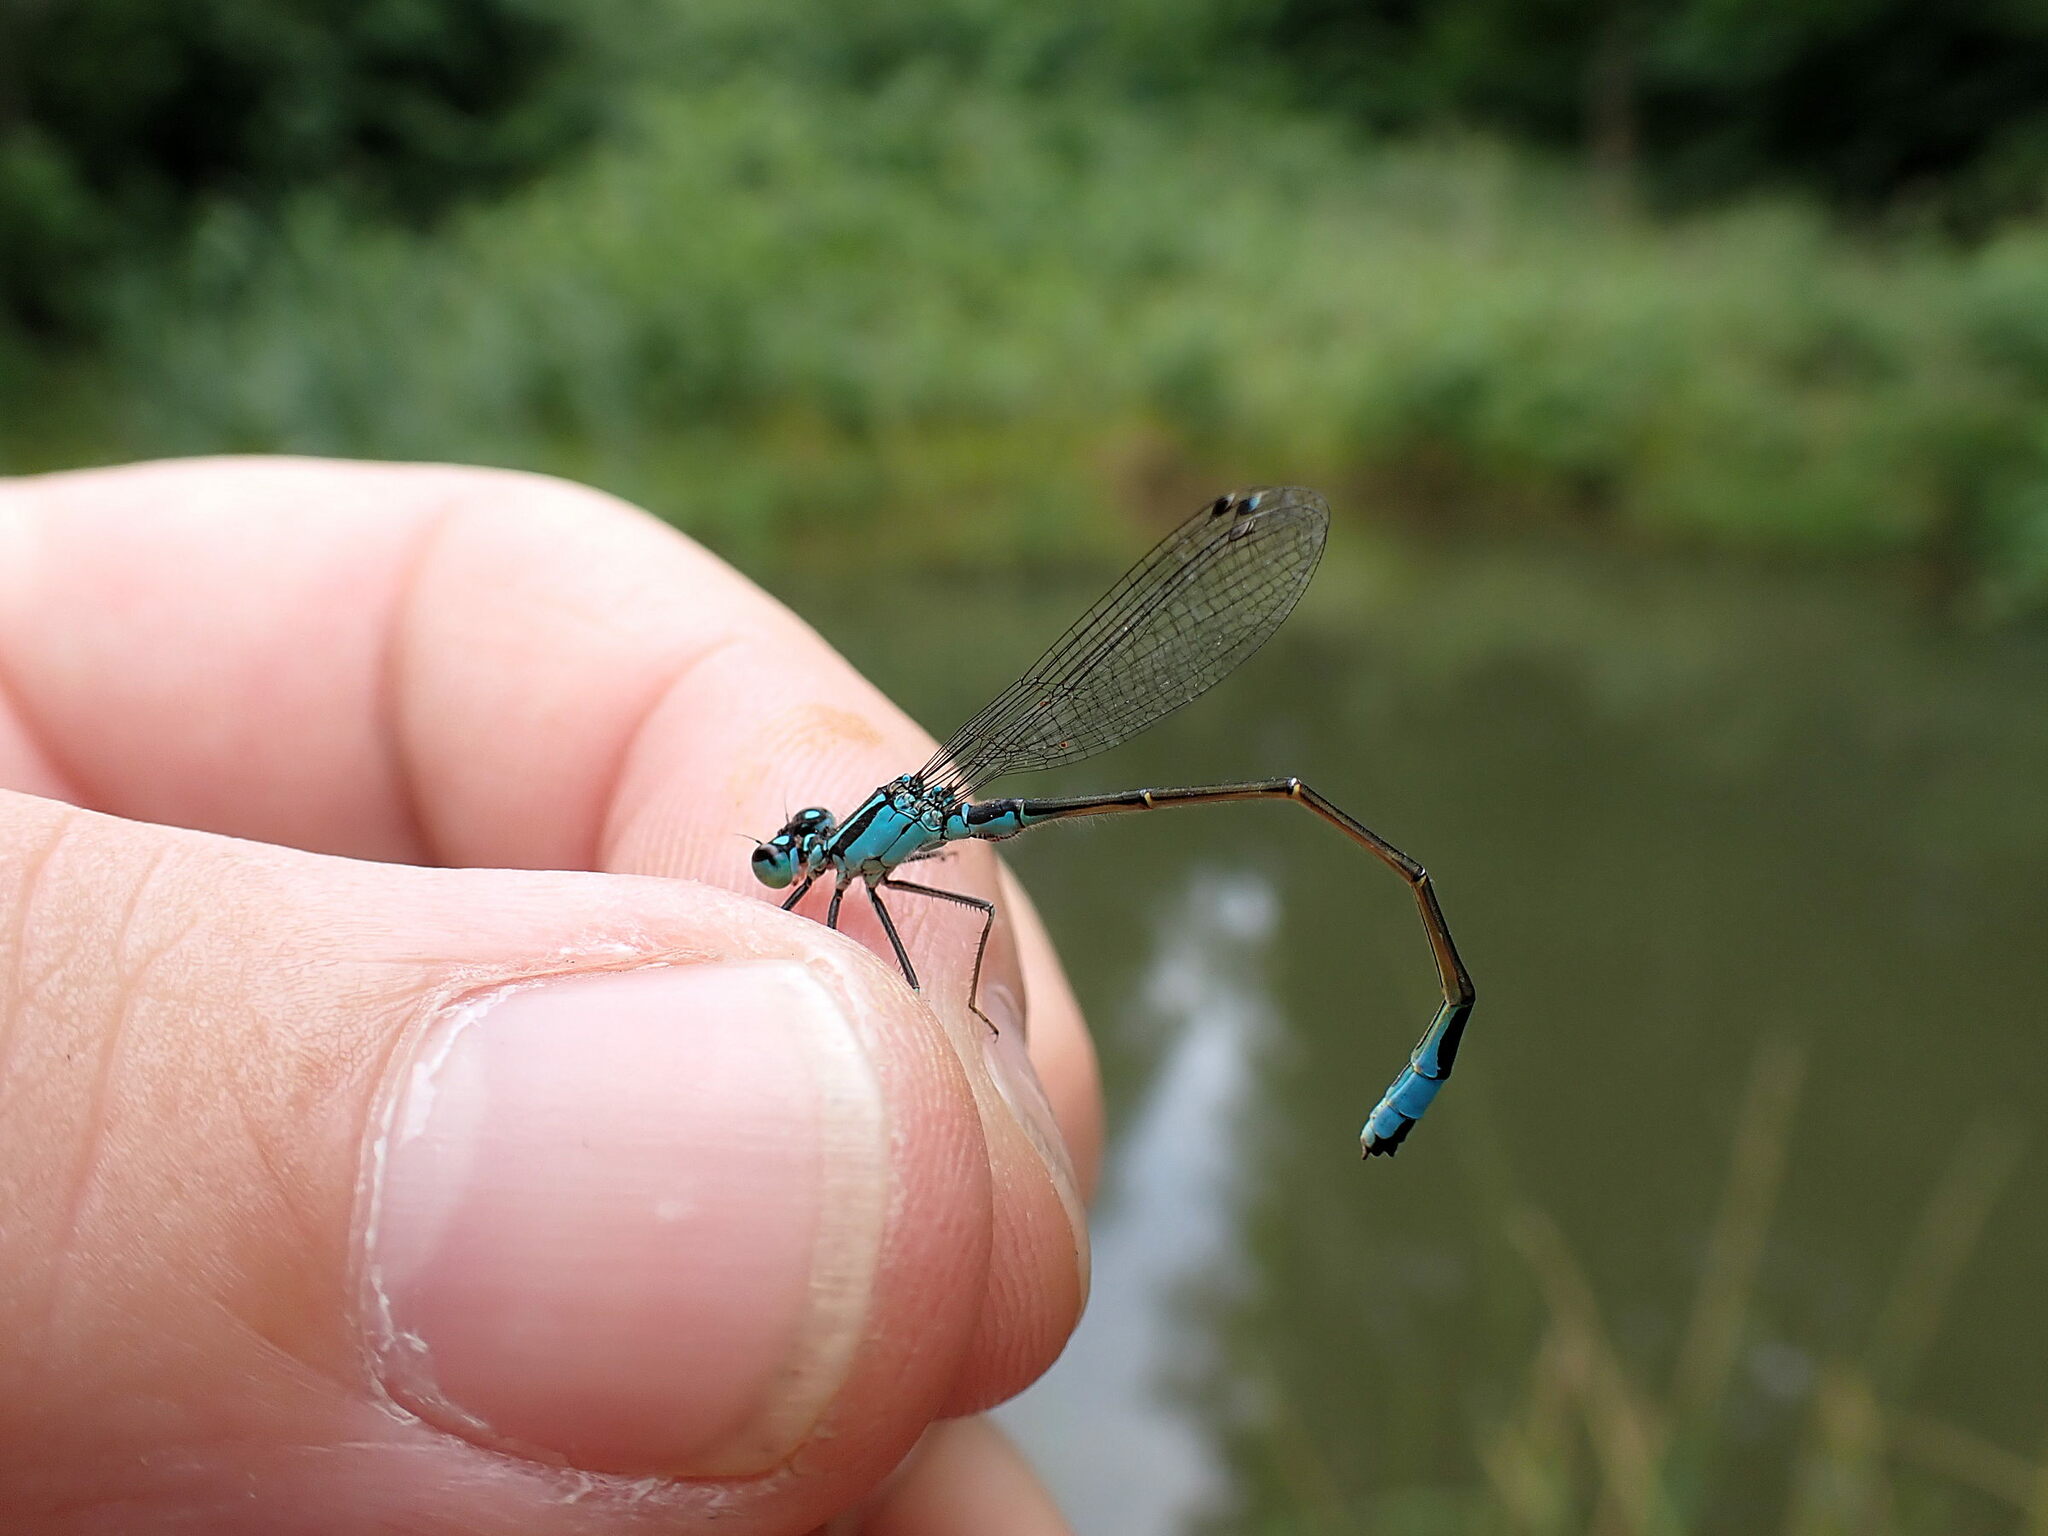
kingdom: Animalia
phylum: Arthropoda
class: Insecta
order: Odonata
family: Coenagrionidae
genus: Ischnura
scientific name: Ischnura elegans
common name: Blue-tailed damselfly
